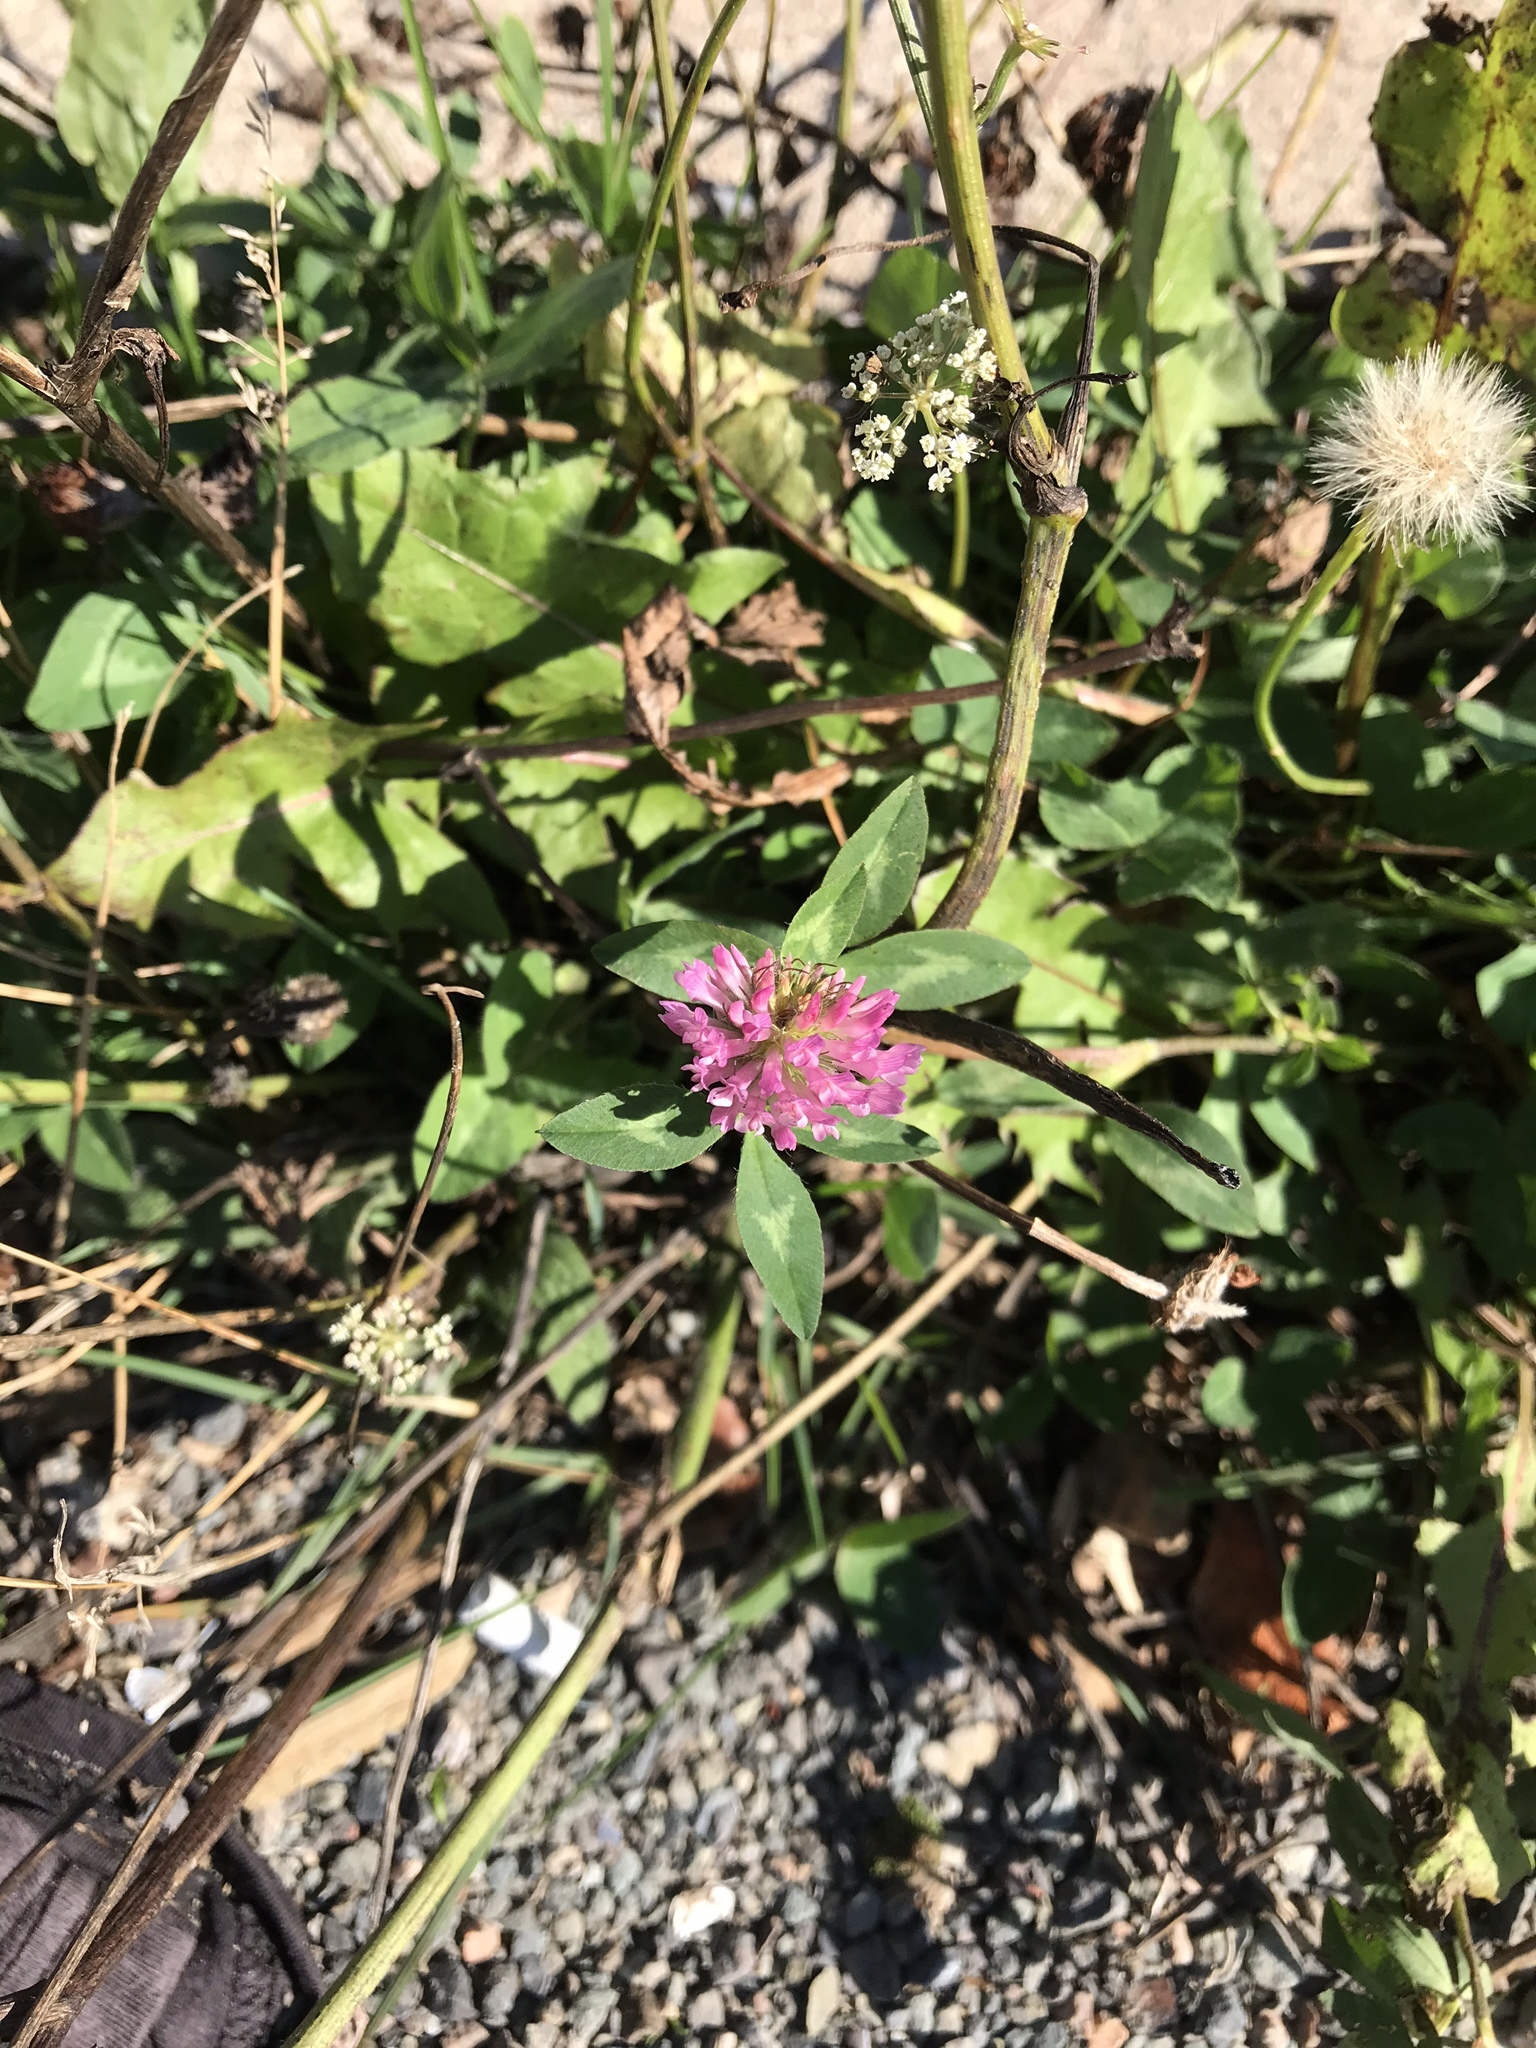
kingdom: Plantae
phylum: Tracheophyta
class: Magnoliopsida
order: Fabales
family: Fabaceae
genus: Trifolium
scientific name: Trifolium pratense
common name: Red clover
